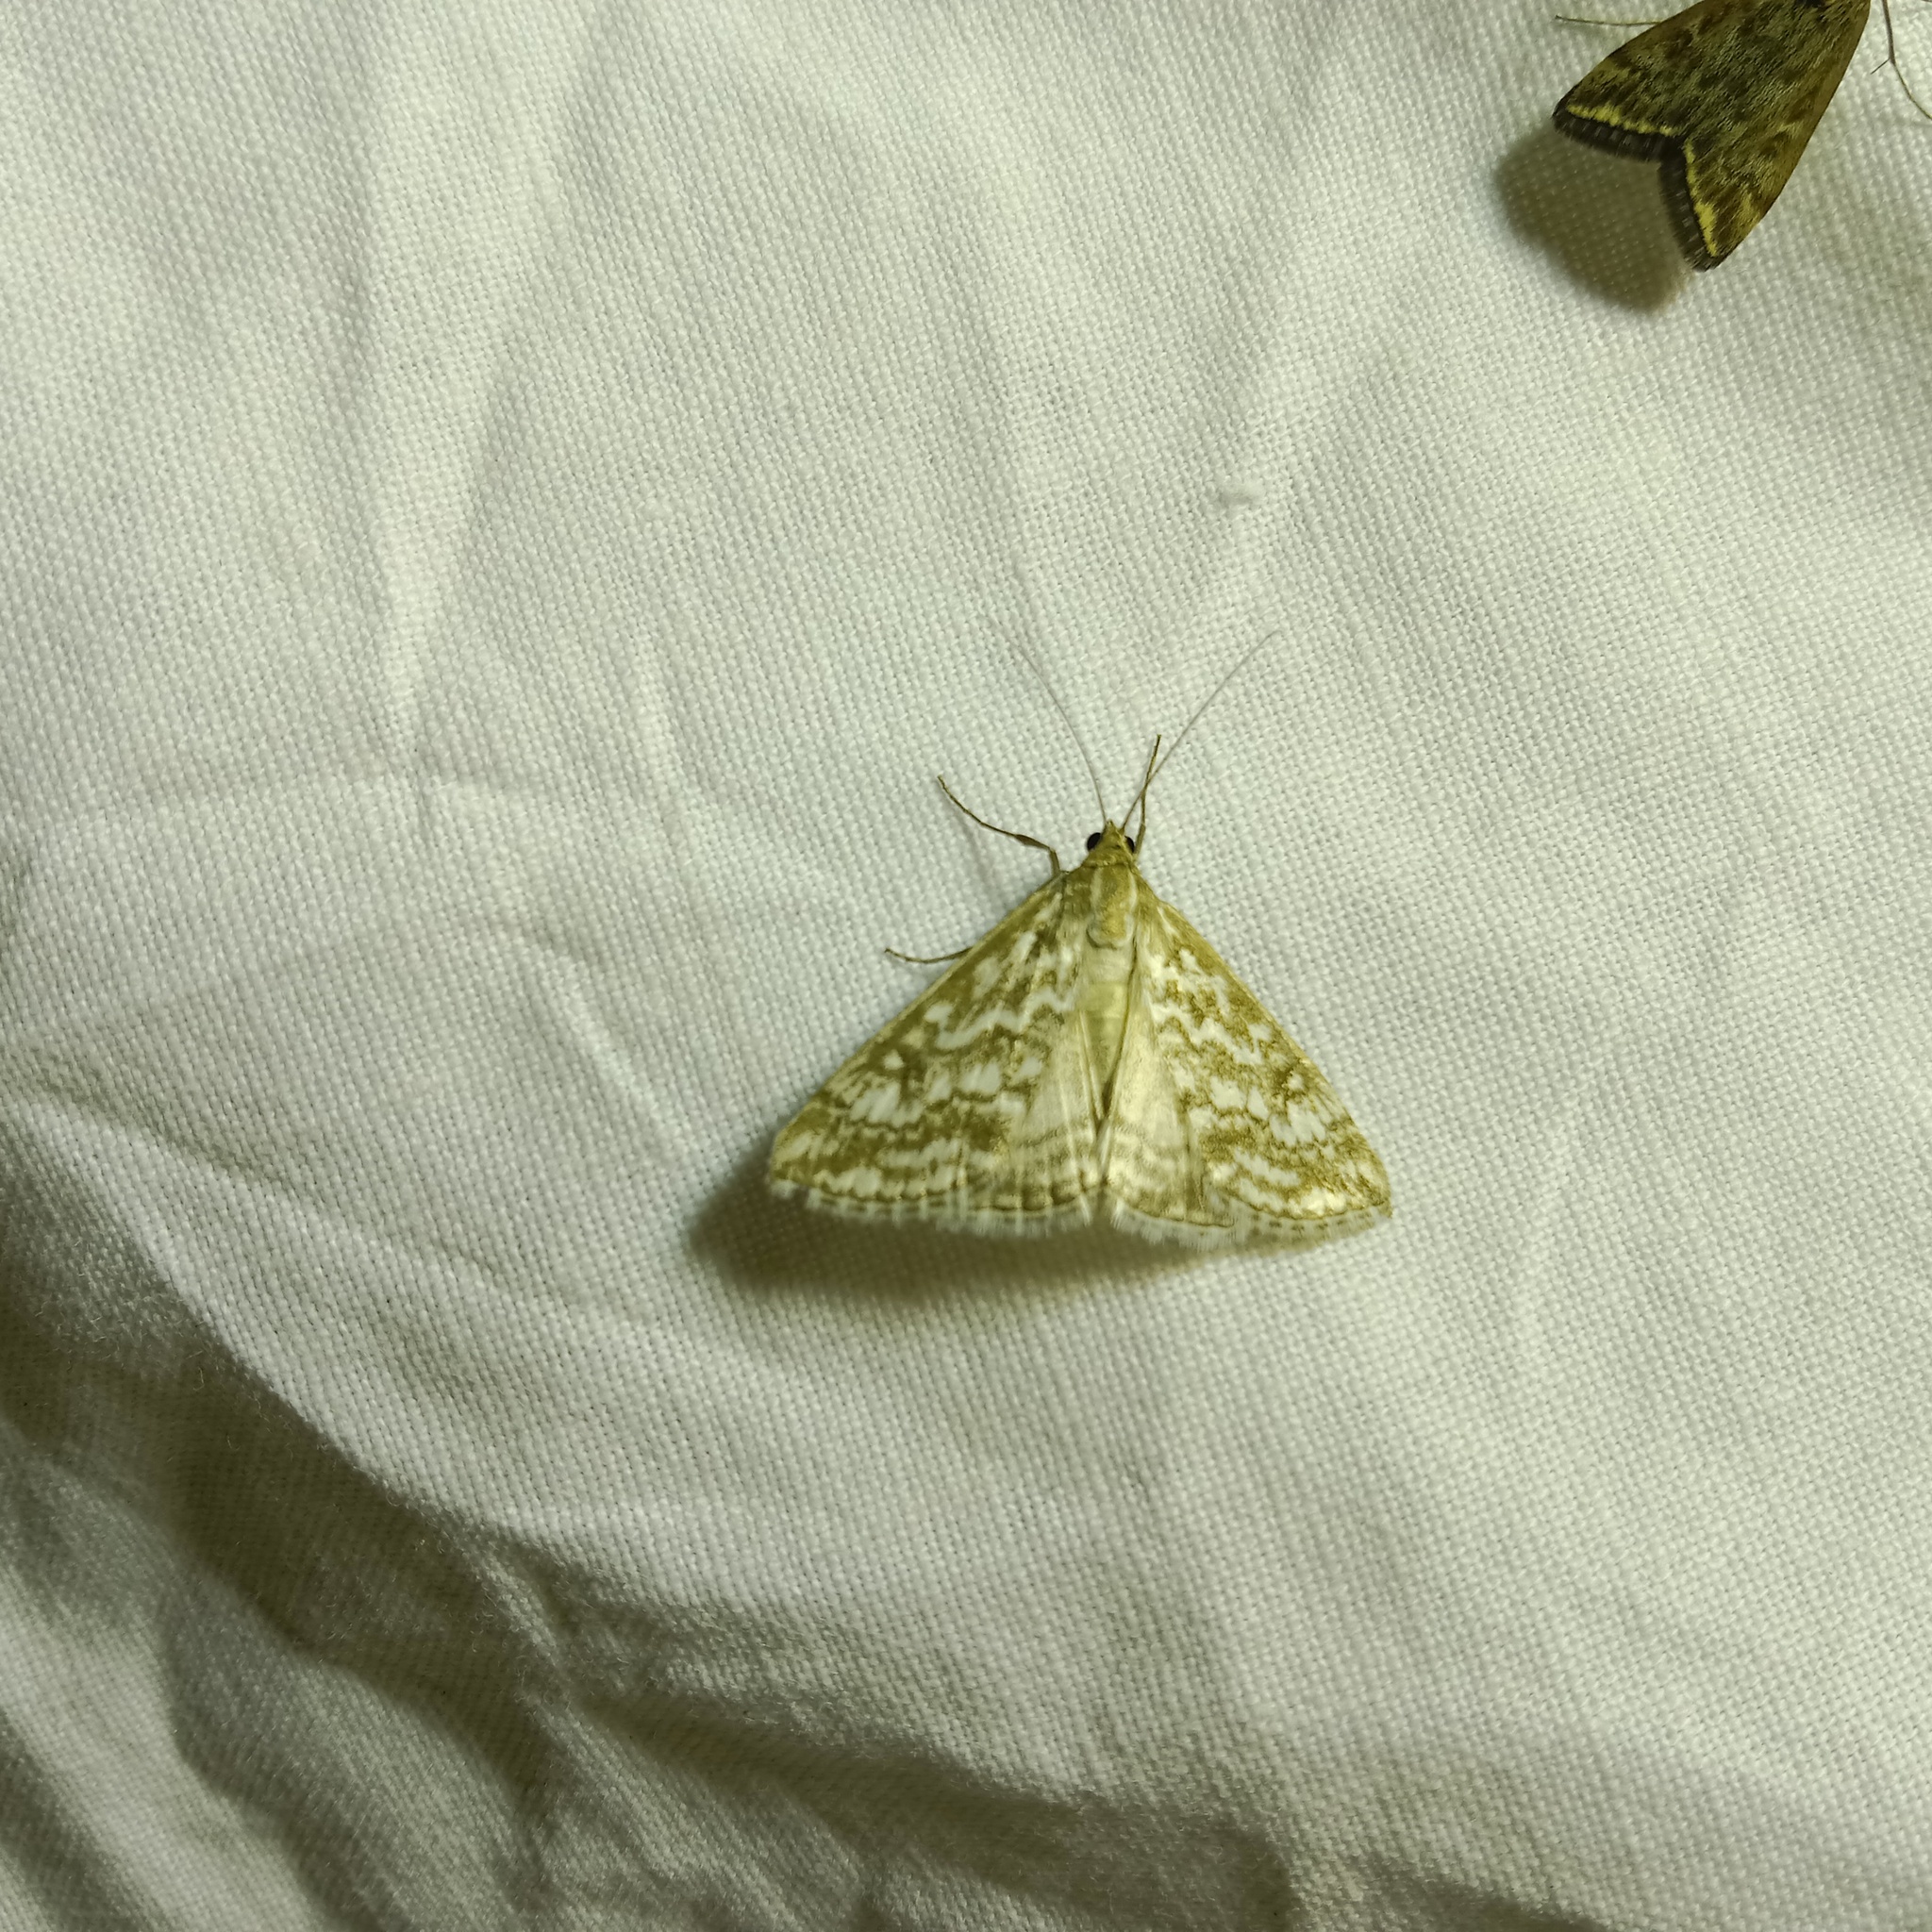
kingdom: Animalia
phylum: Arthropoda
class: Insecta
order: Lepidoptera
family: Crambidae
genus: Evergestis
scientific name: Evergestis frumentalis
